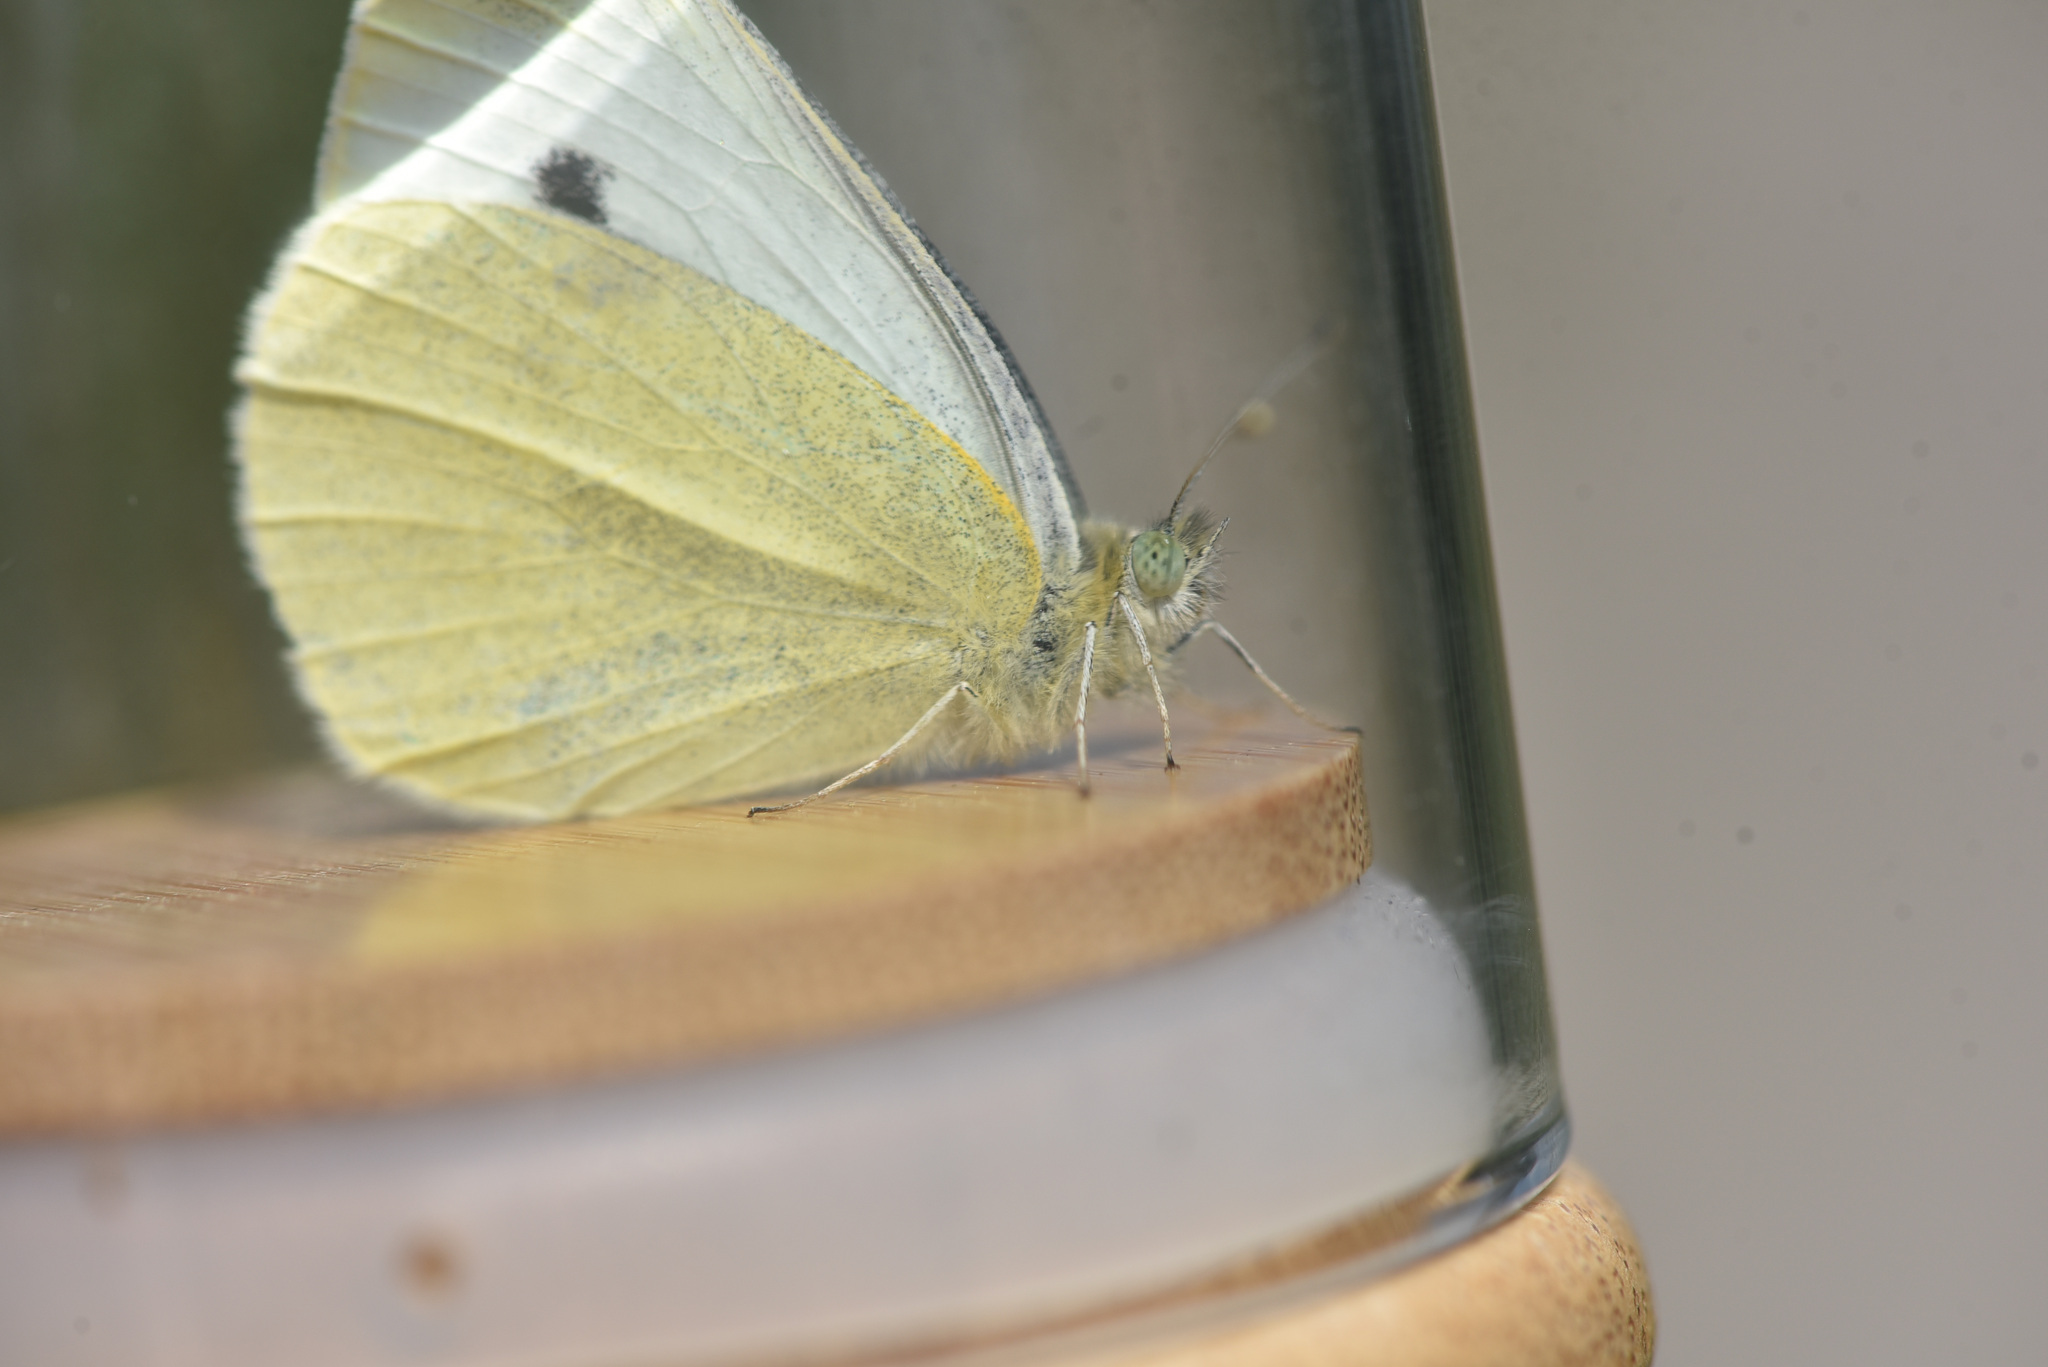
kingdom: Animalia
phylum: Arthropoda
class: Insecta
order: Lepidoptera
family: Pieridae
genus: Pieris
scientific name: Pieris rapae
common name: Small white
